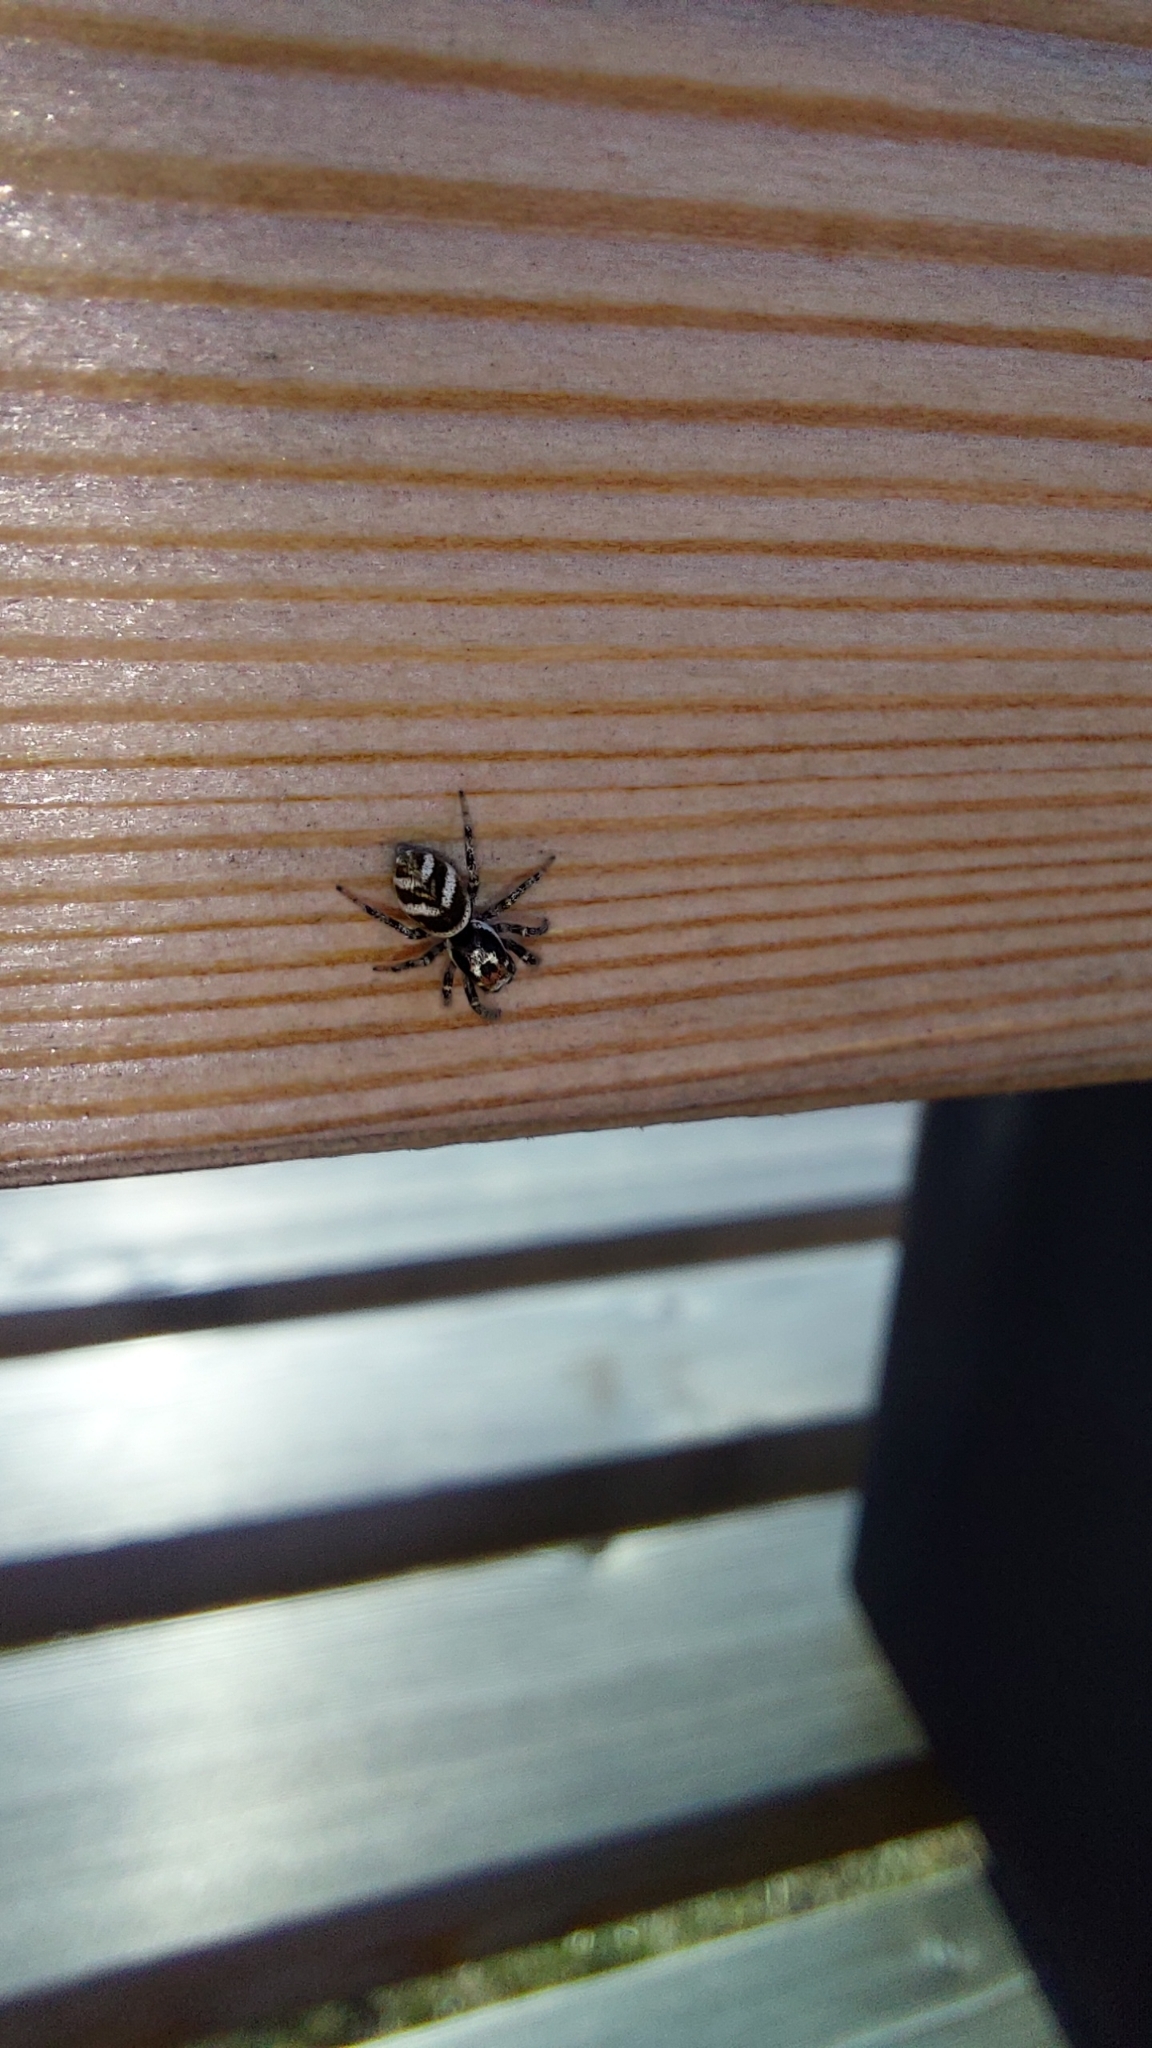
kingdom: Animalia
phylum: Arthropoda
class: Arachnida
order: Araneae
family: Salticidae
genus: Salticus
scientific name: Salticus scenicus
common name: Zebra jumper
